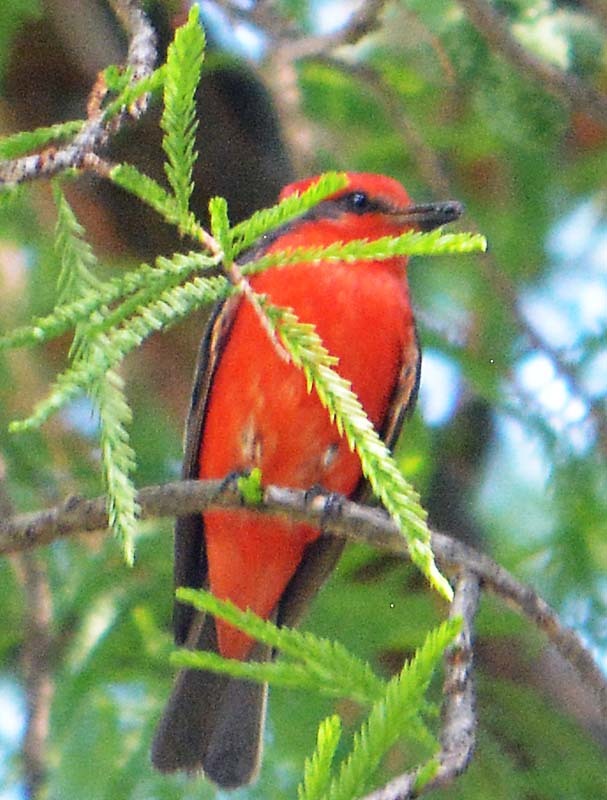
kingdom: Animalia
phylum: Chordata
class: Aves
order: Passeriformes
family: Tyrannidae
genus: Pyrocephalus
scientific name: Pyrocephalus rubinus
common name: Vermilion flycatcher
